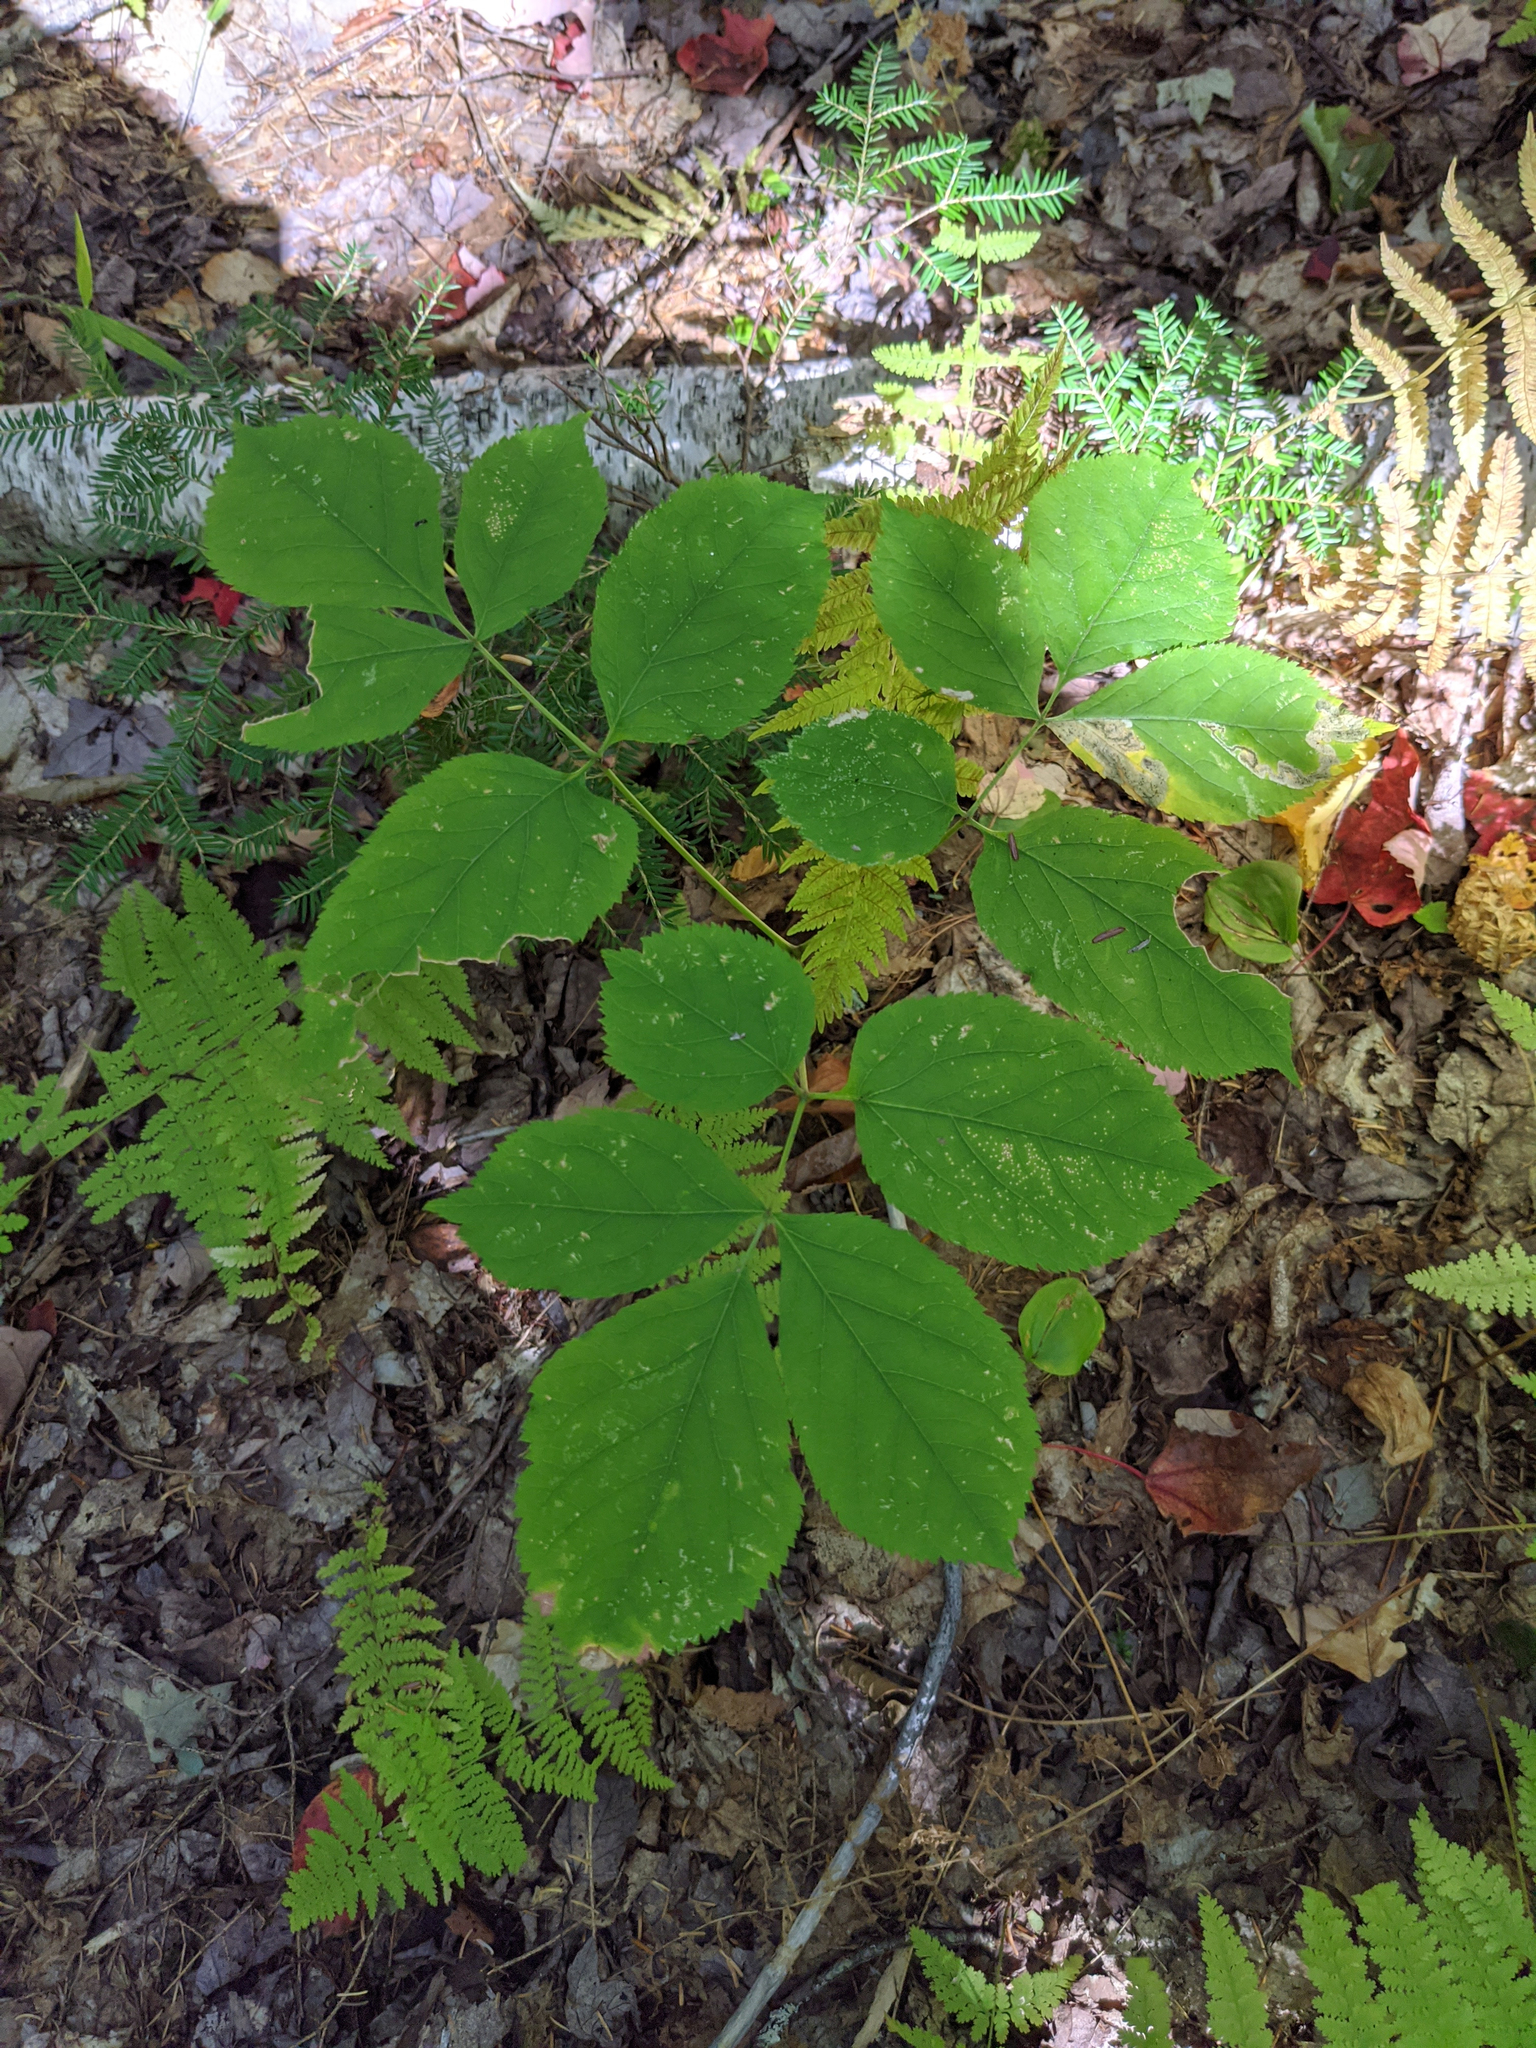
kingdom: Plantae
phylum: Tracheophyta
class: Magnoliopsida
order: Apiales
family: Araliaceae
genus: Aralia
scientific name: Aralia nudicaulis
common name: Wild sarsaparilla
